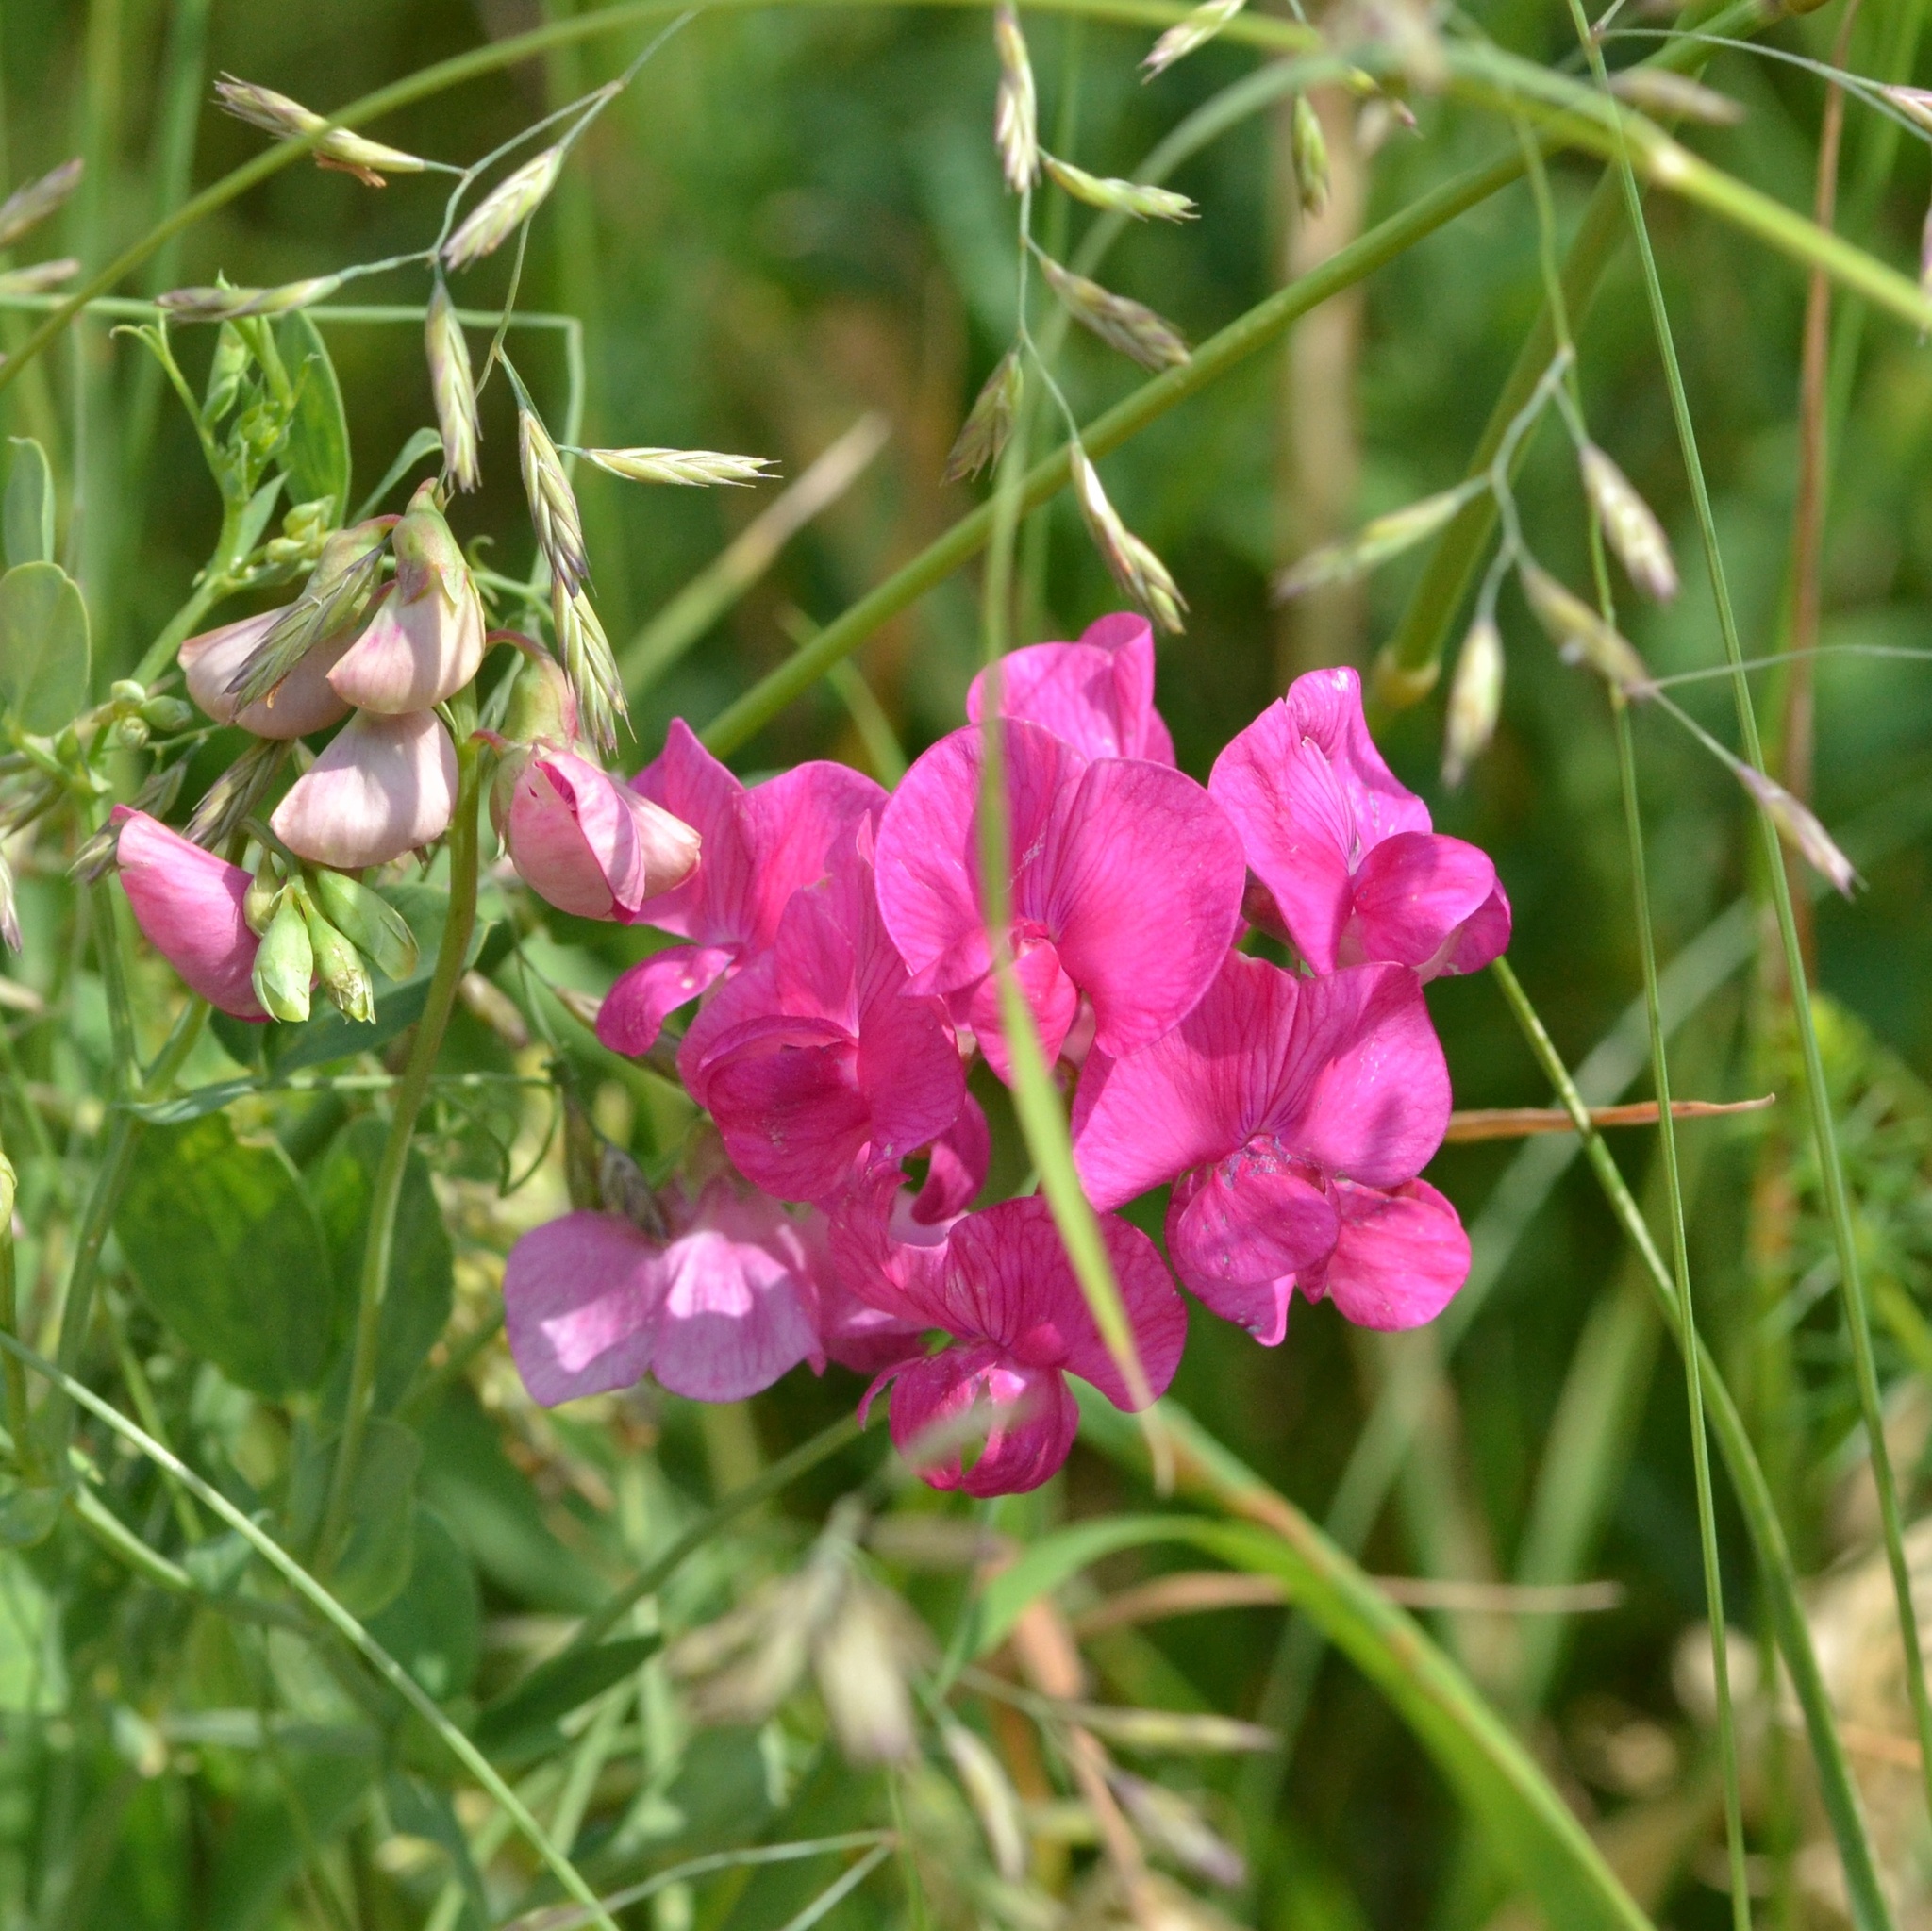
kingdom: Plantae
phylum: Tracheophyta
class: Magnoliopsida
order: Fabales
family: Fabaceae
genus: Lathyrus
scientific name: Lathyrus tuberosus
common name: Tuberous pea
